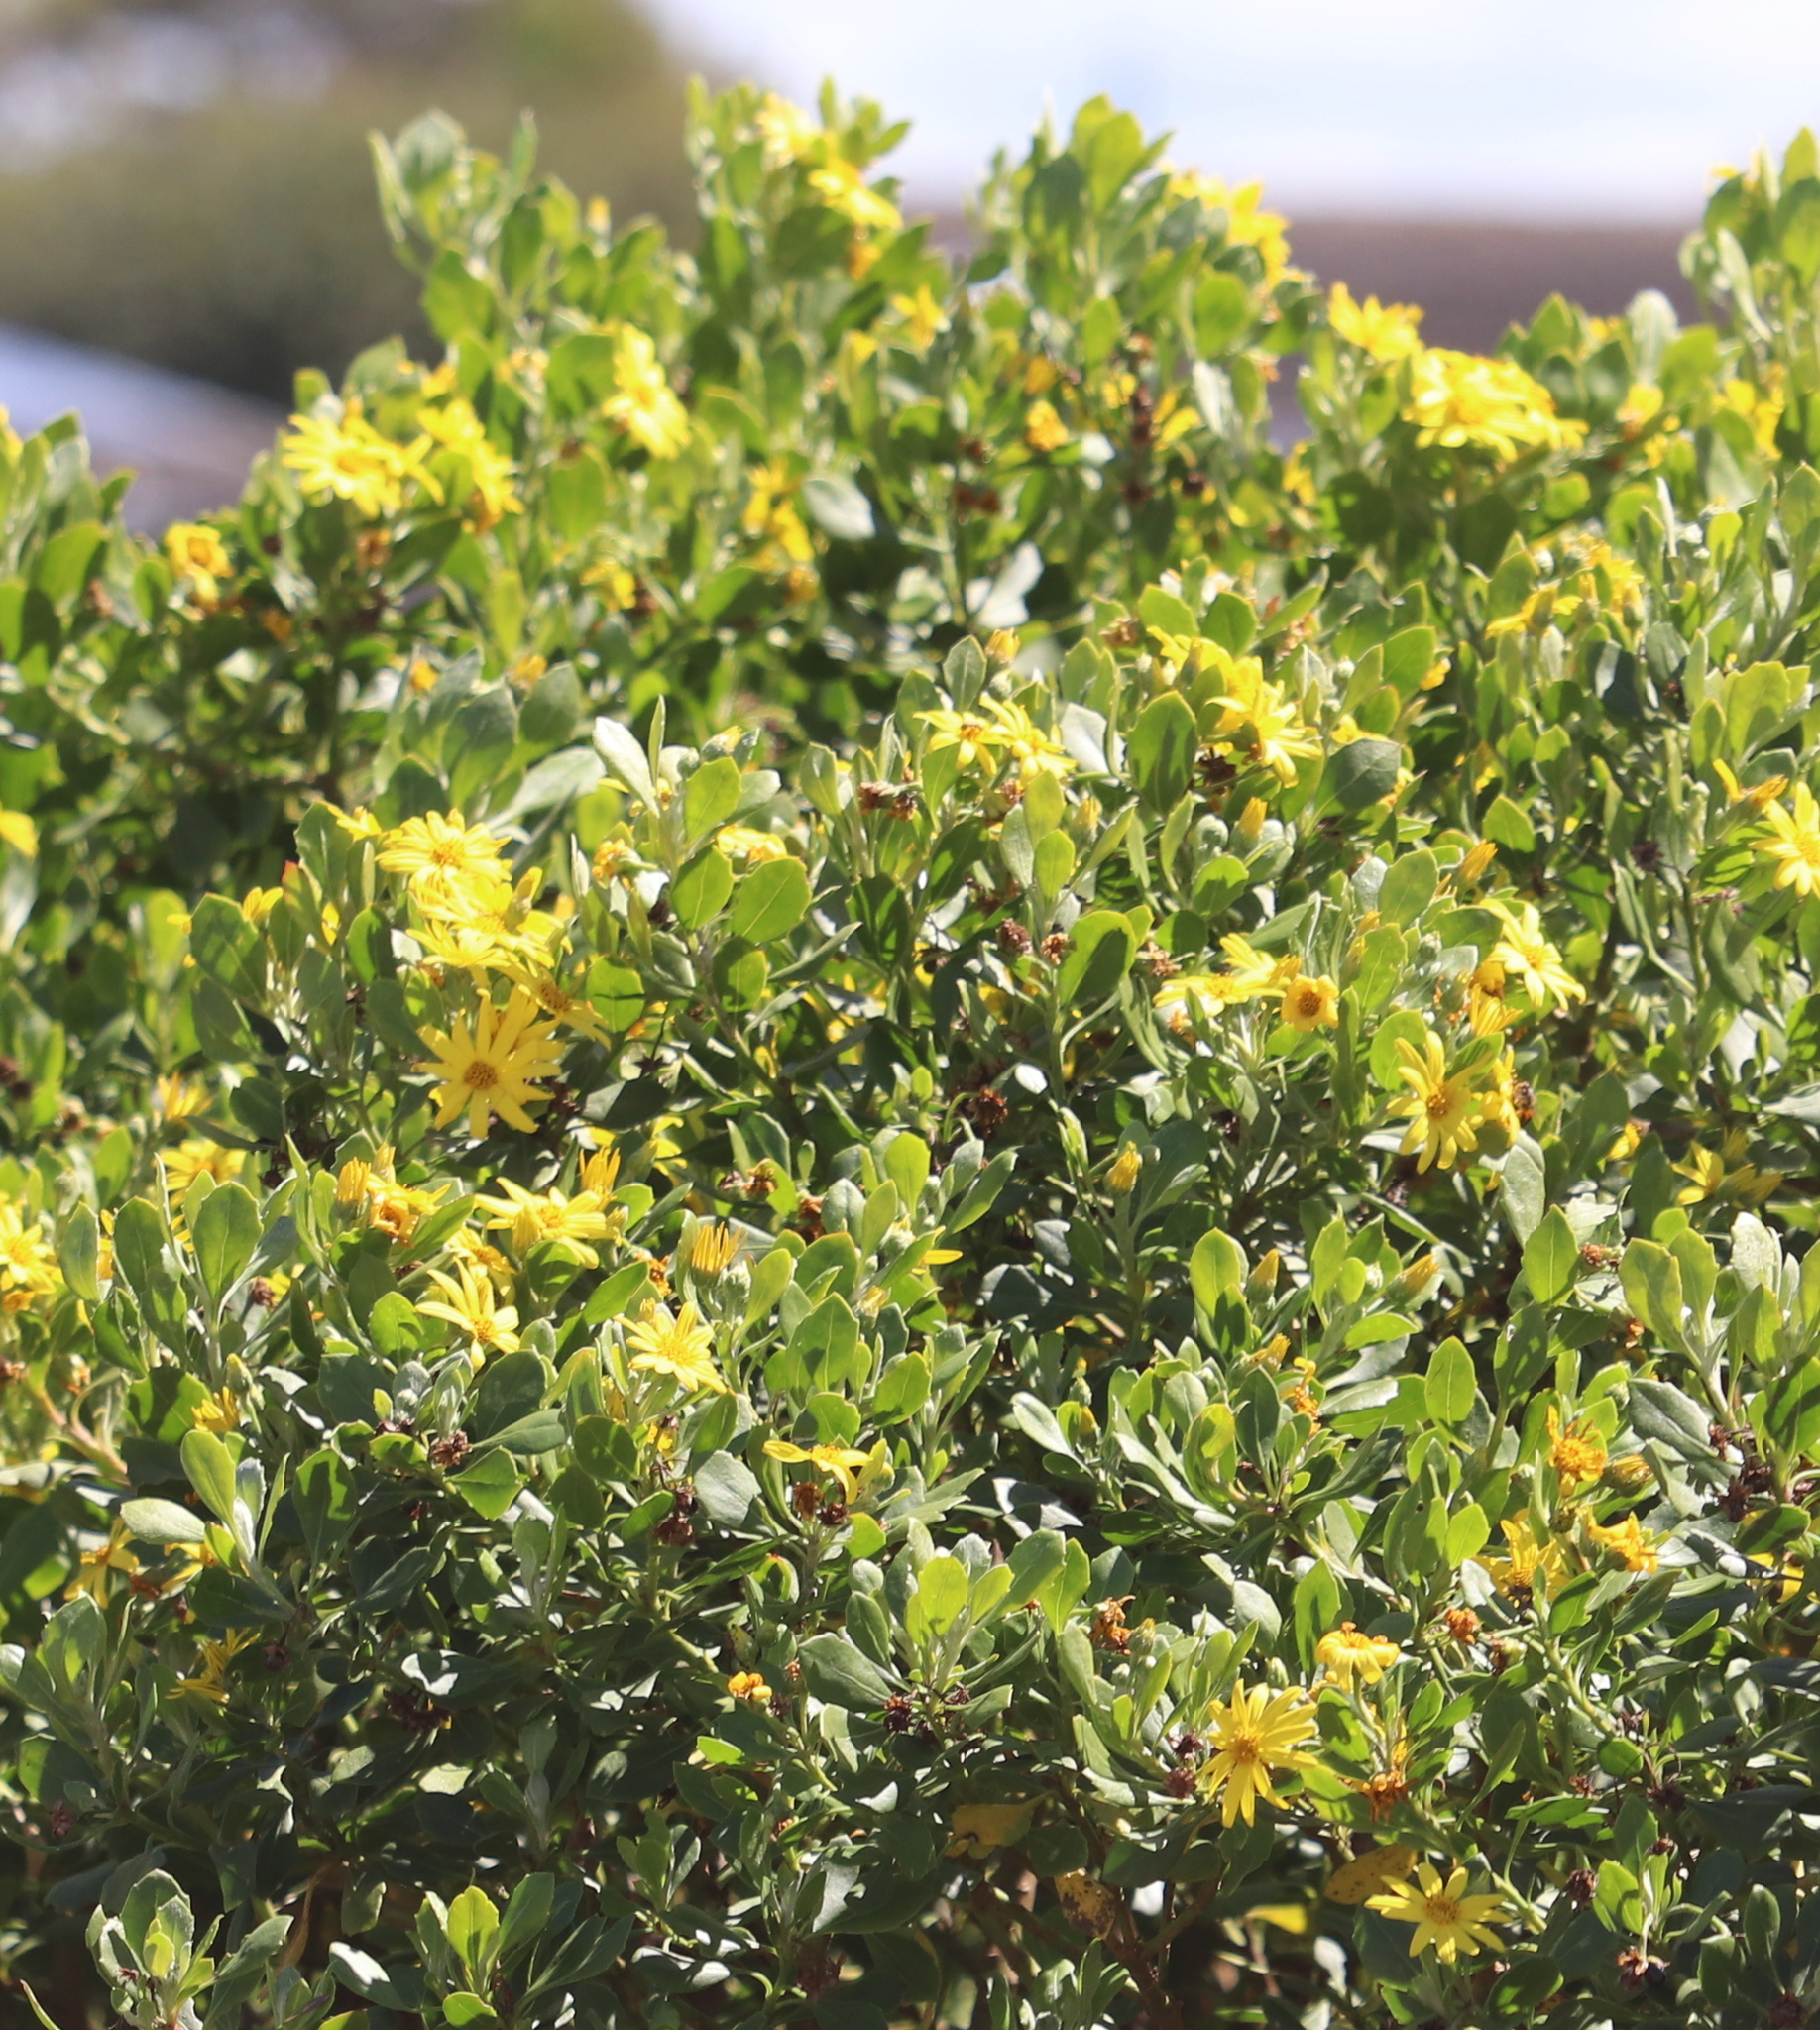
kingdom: Plantae
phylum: Tracheophyta
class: Magnoliopsida
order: Asterales
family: Asteraceae
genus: Osteospermum
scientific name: Osteospermum moniliferum
